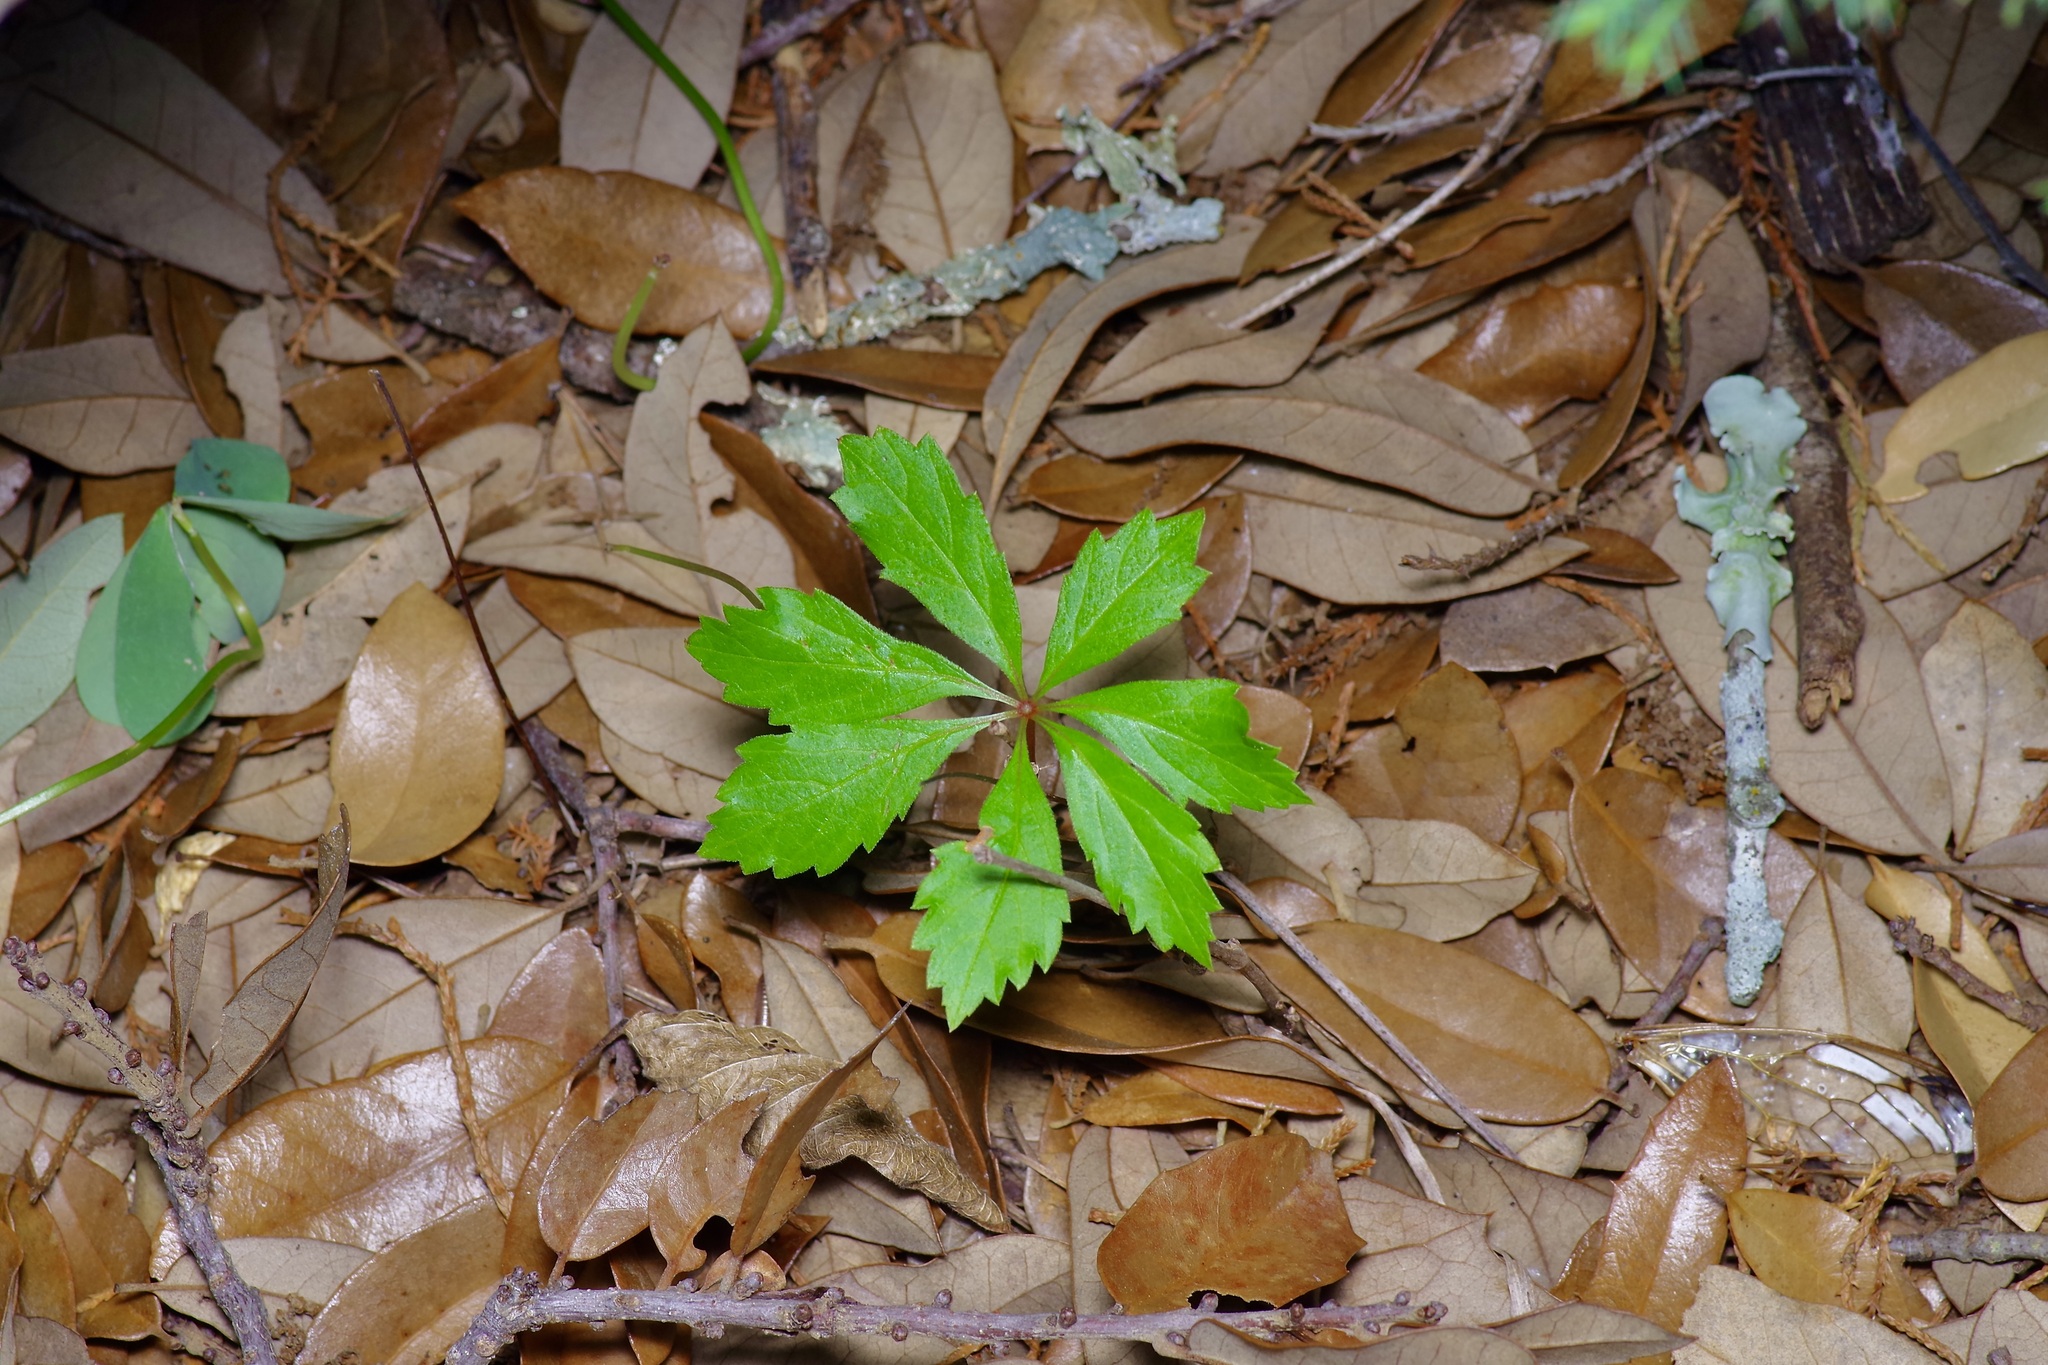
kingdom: Plantae
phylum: Tracheophyta
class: Magnoliopsida
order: Vitales
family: Vitaceae
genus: Parthenocissus
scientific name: Parthenocissus heptaphylla
